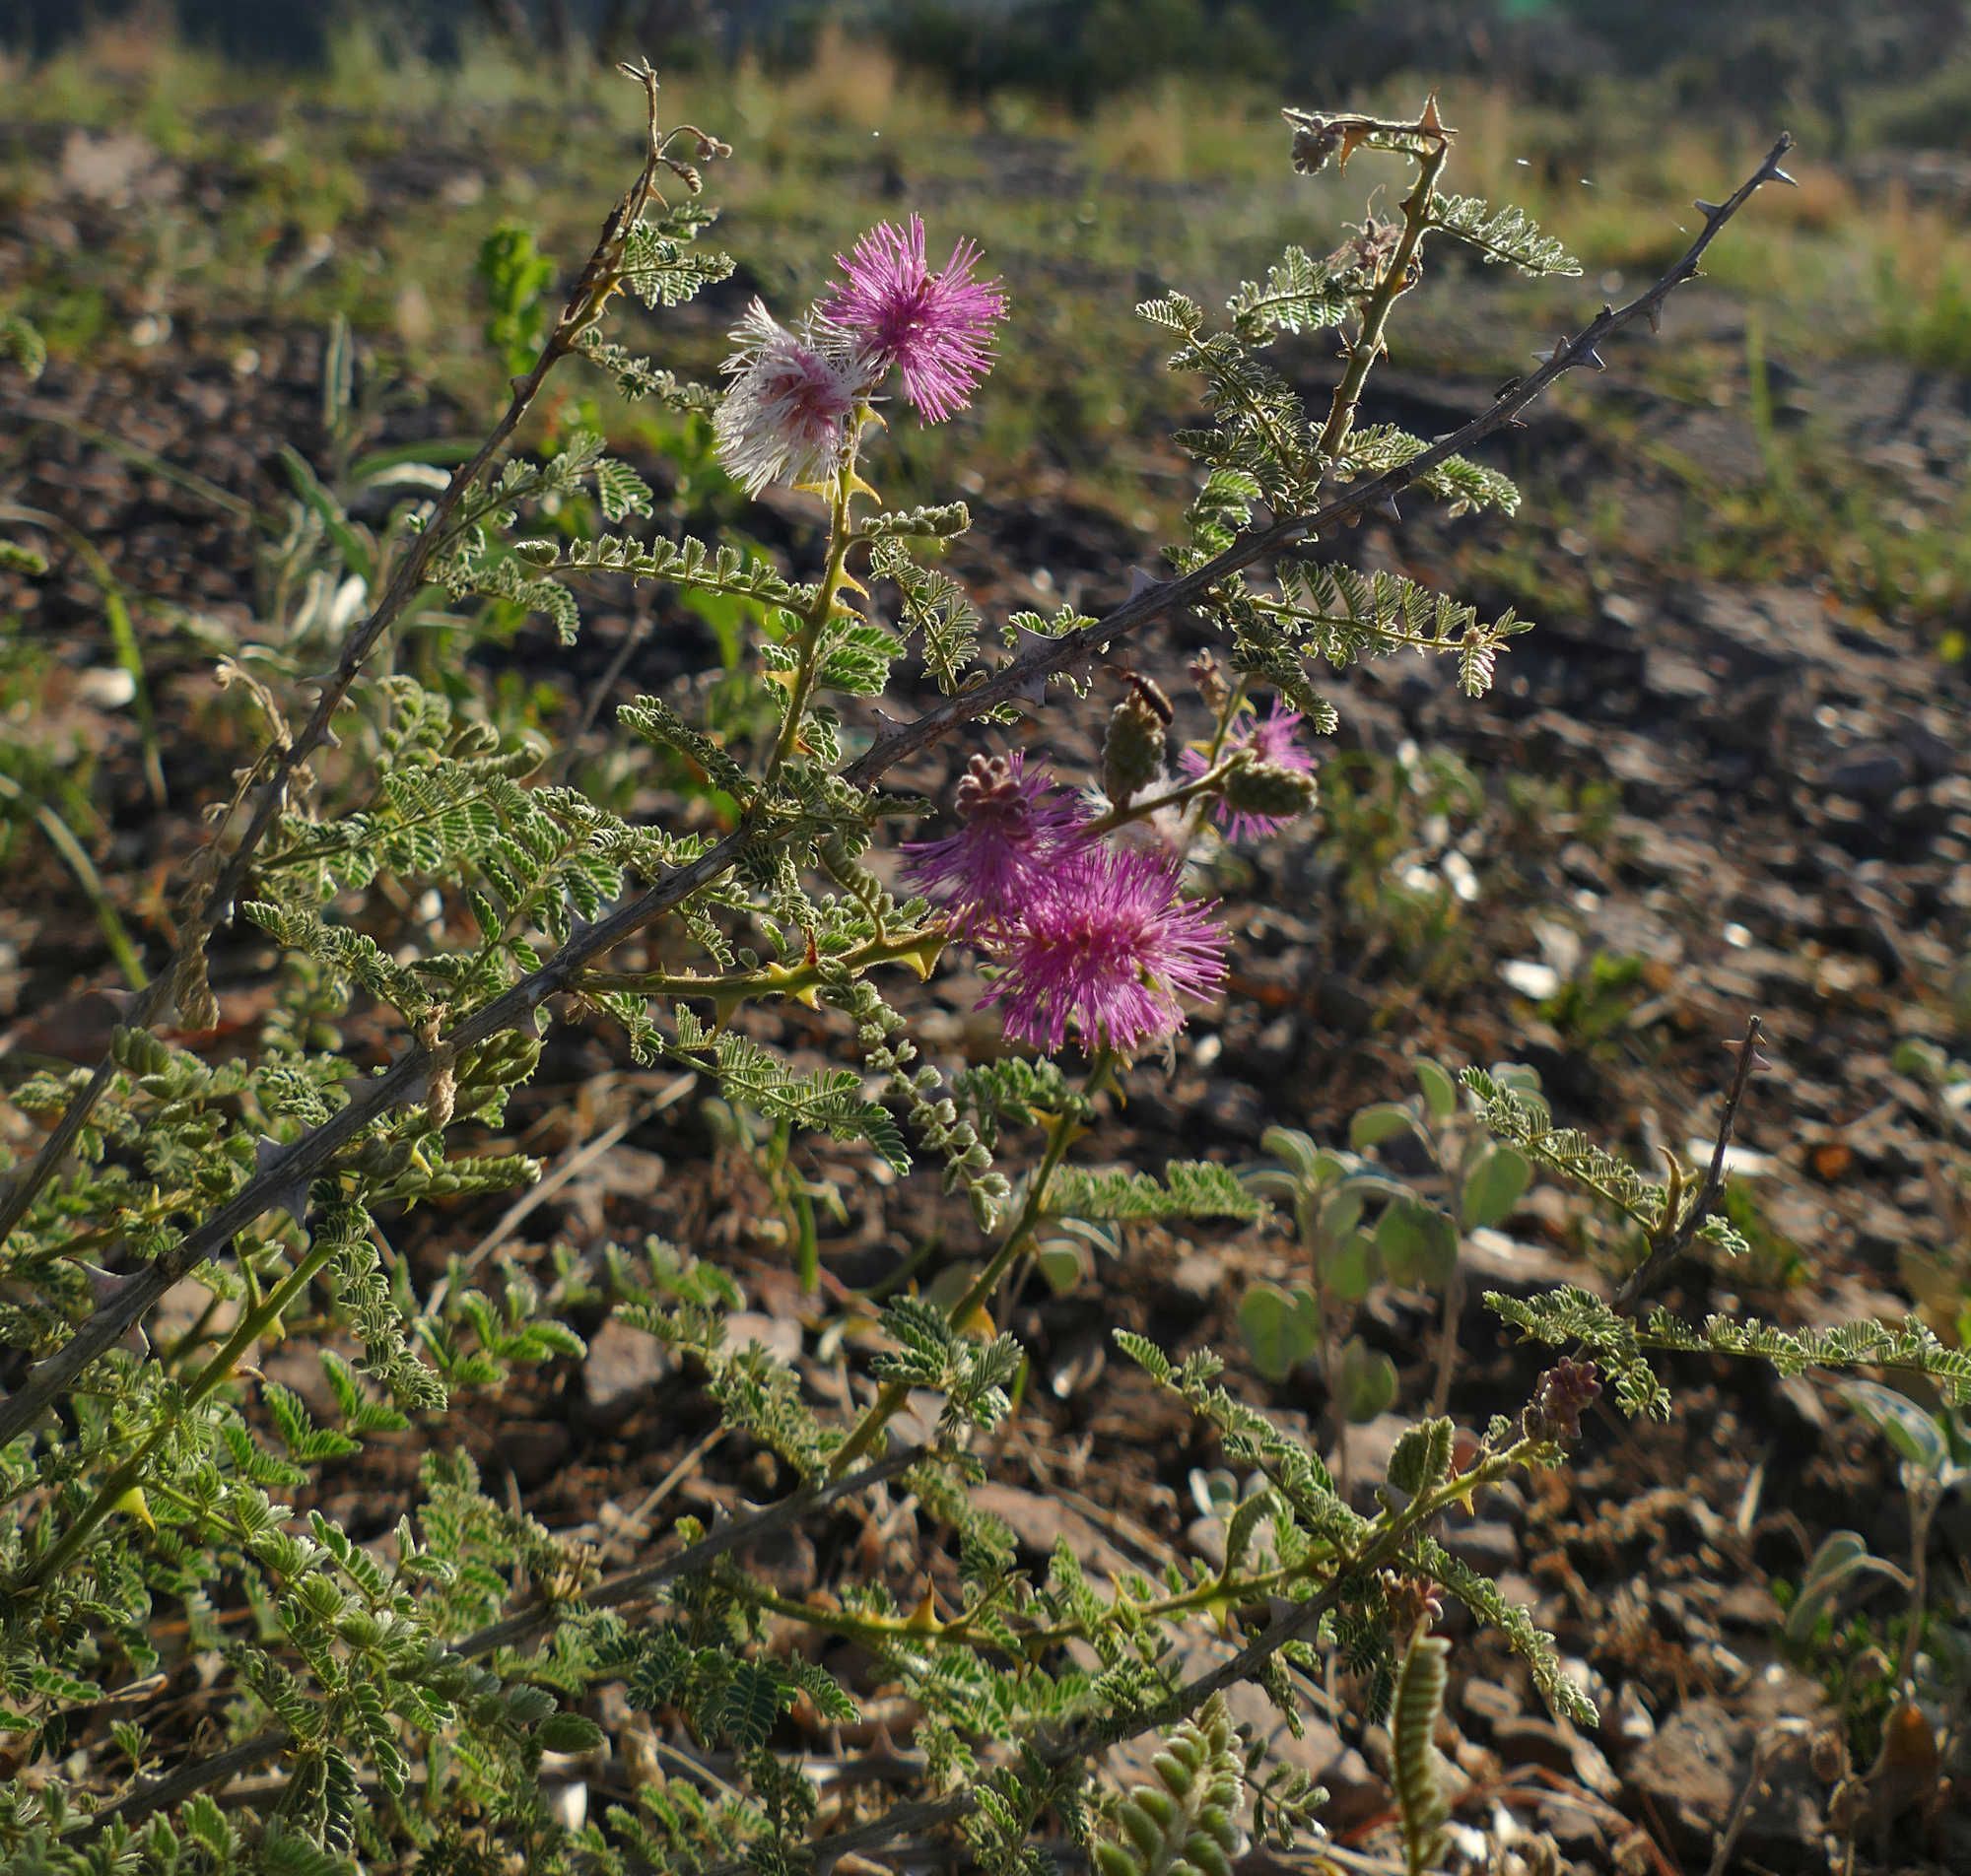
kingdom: Plantae
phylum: Tracheophyta
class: Magnoliopsida
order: Fabales
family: Fabaceae
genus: Mimosa
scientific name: Mimosa dysocarpa
